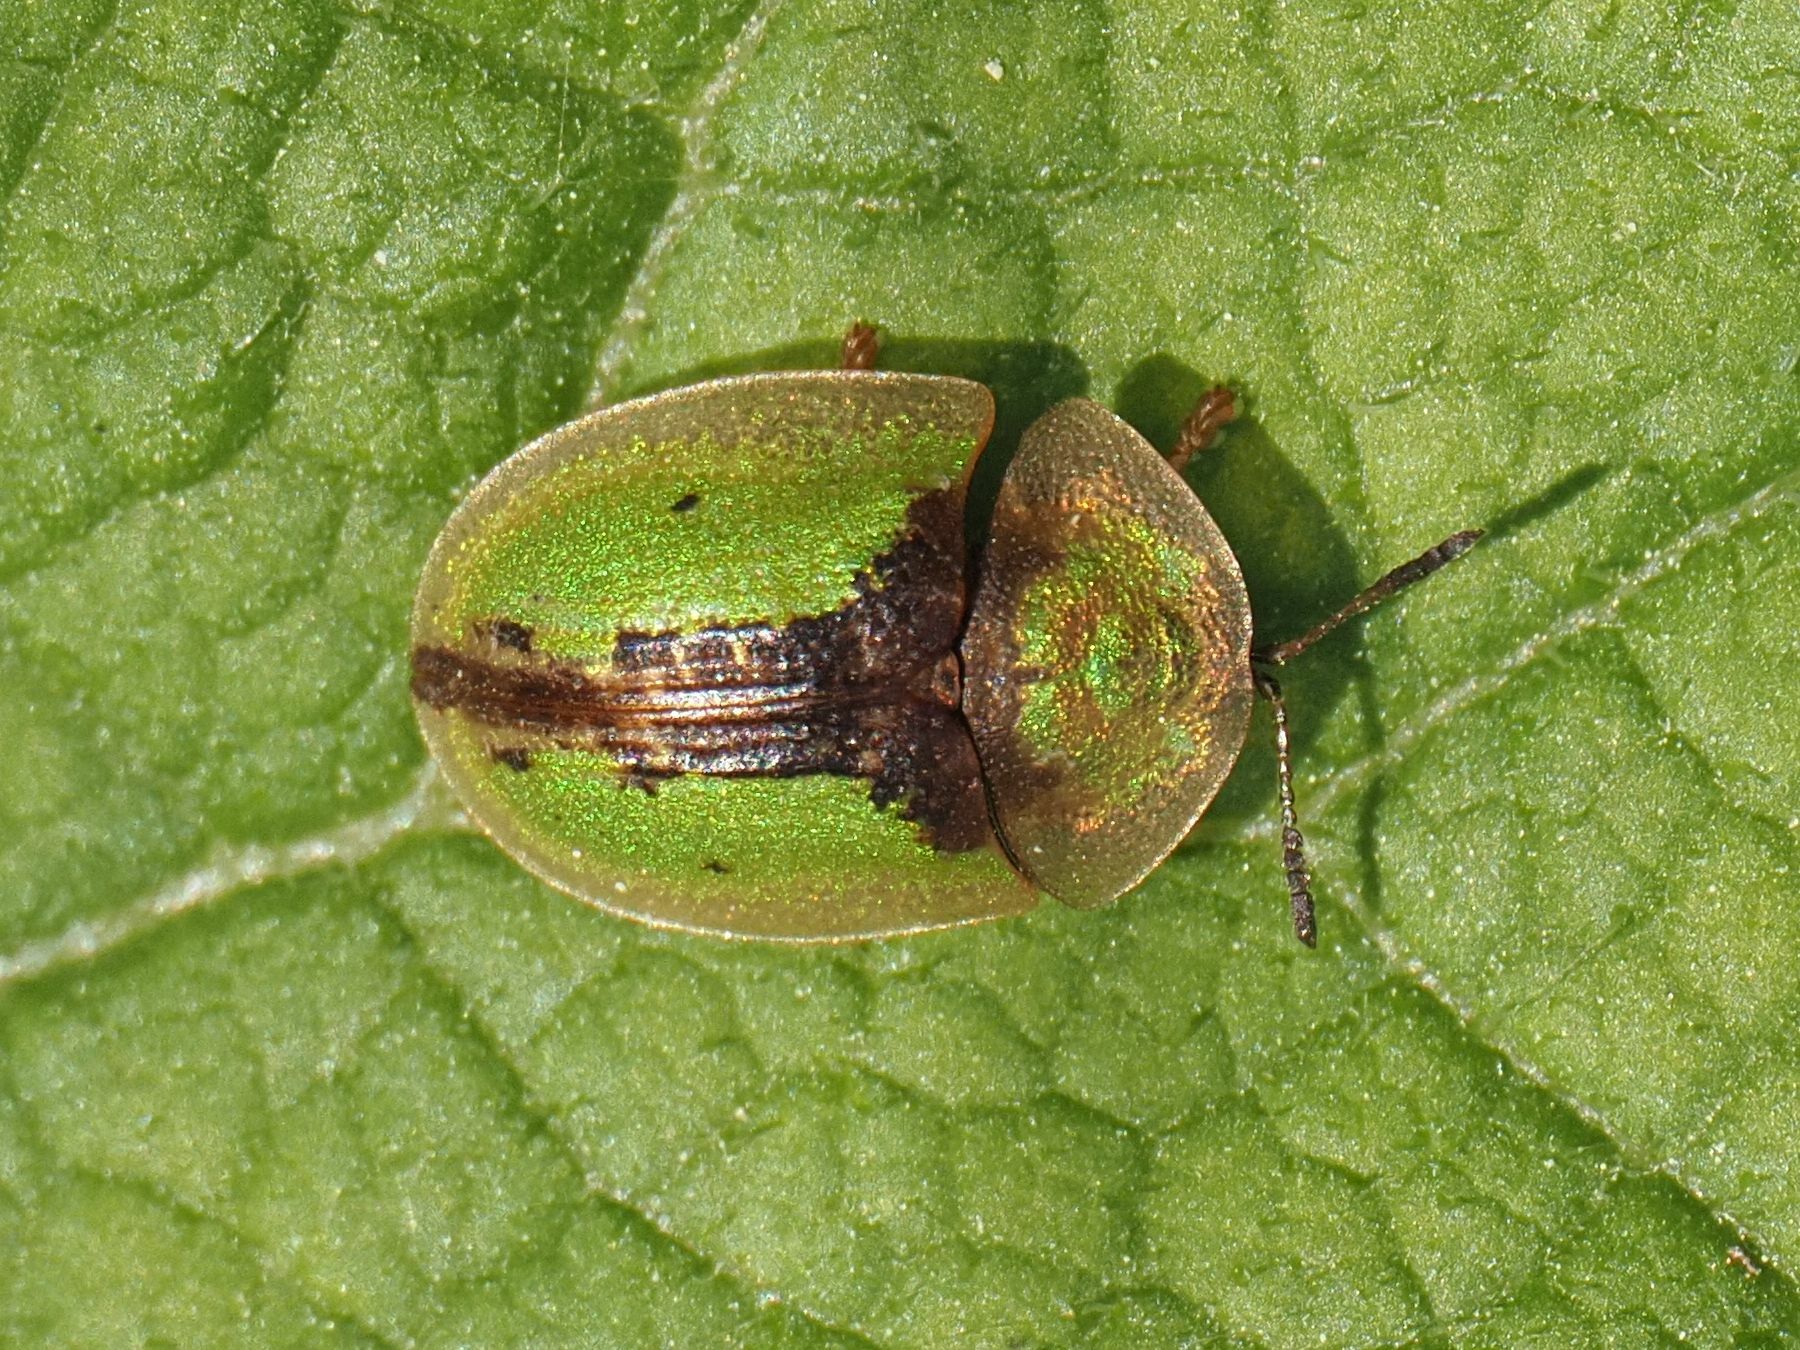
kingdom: Animalia
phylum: Arthropoda
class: Insecta
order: Coleoptera
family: Chrysomelidae
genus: Cassida
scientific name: Cassida vibex
